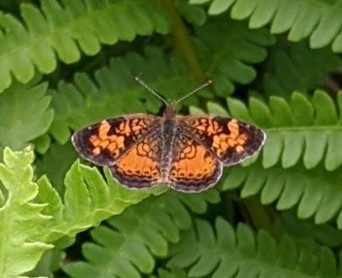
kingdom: Animalia
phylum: Arthropoda
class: Insecta
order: Lepidoptera
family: Nymphalidae
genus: Phyciodes
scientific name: Phyciodes tharos
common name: Pearl crescent
